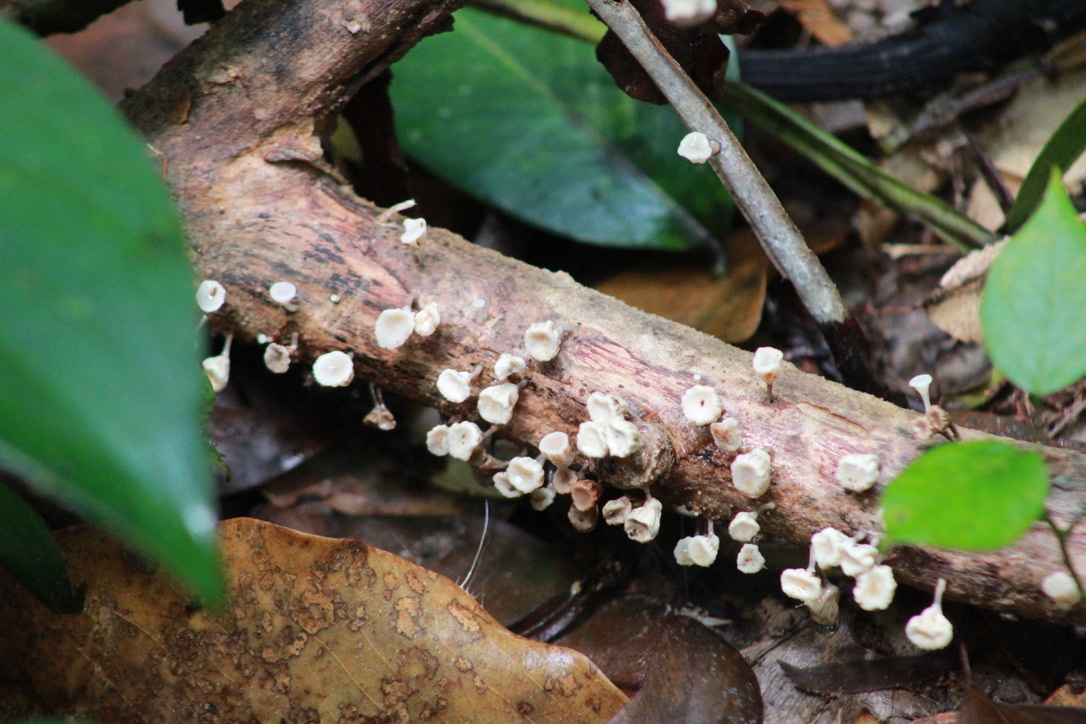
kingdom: Fungi
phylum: Basidiomycota
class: Agaricomycetes
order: Agaricales
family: Omphalotaceae
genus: Gymnopus
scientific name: Gymnopus montagnei
